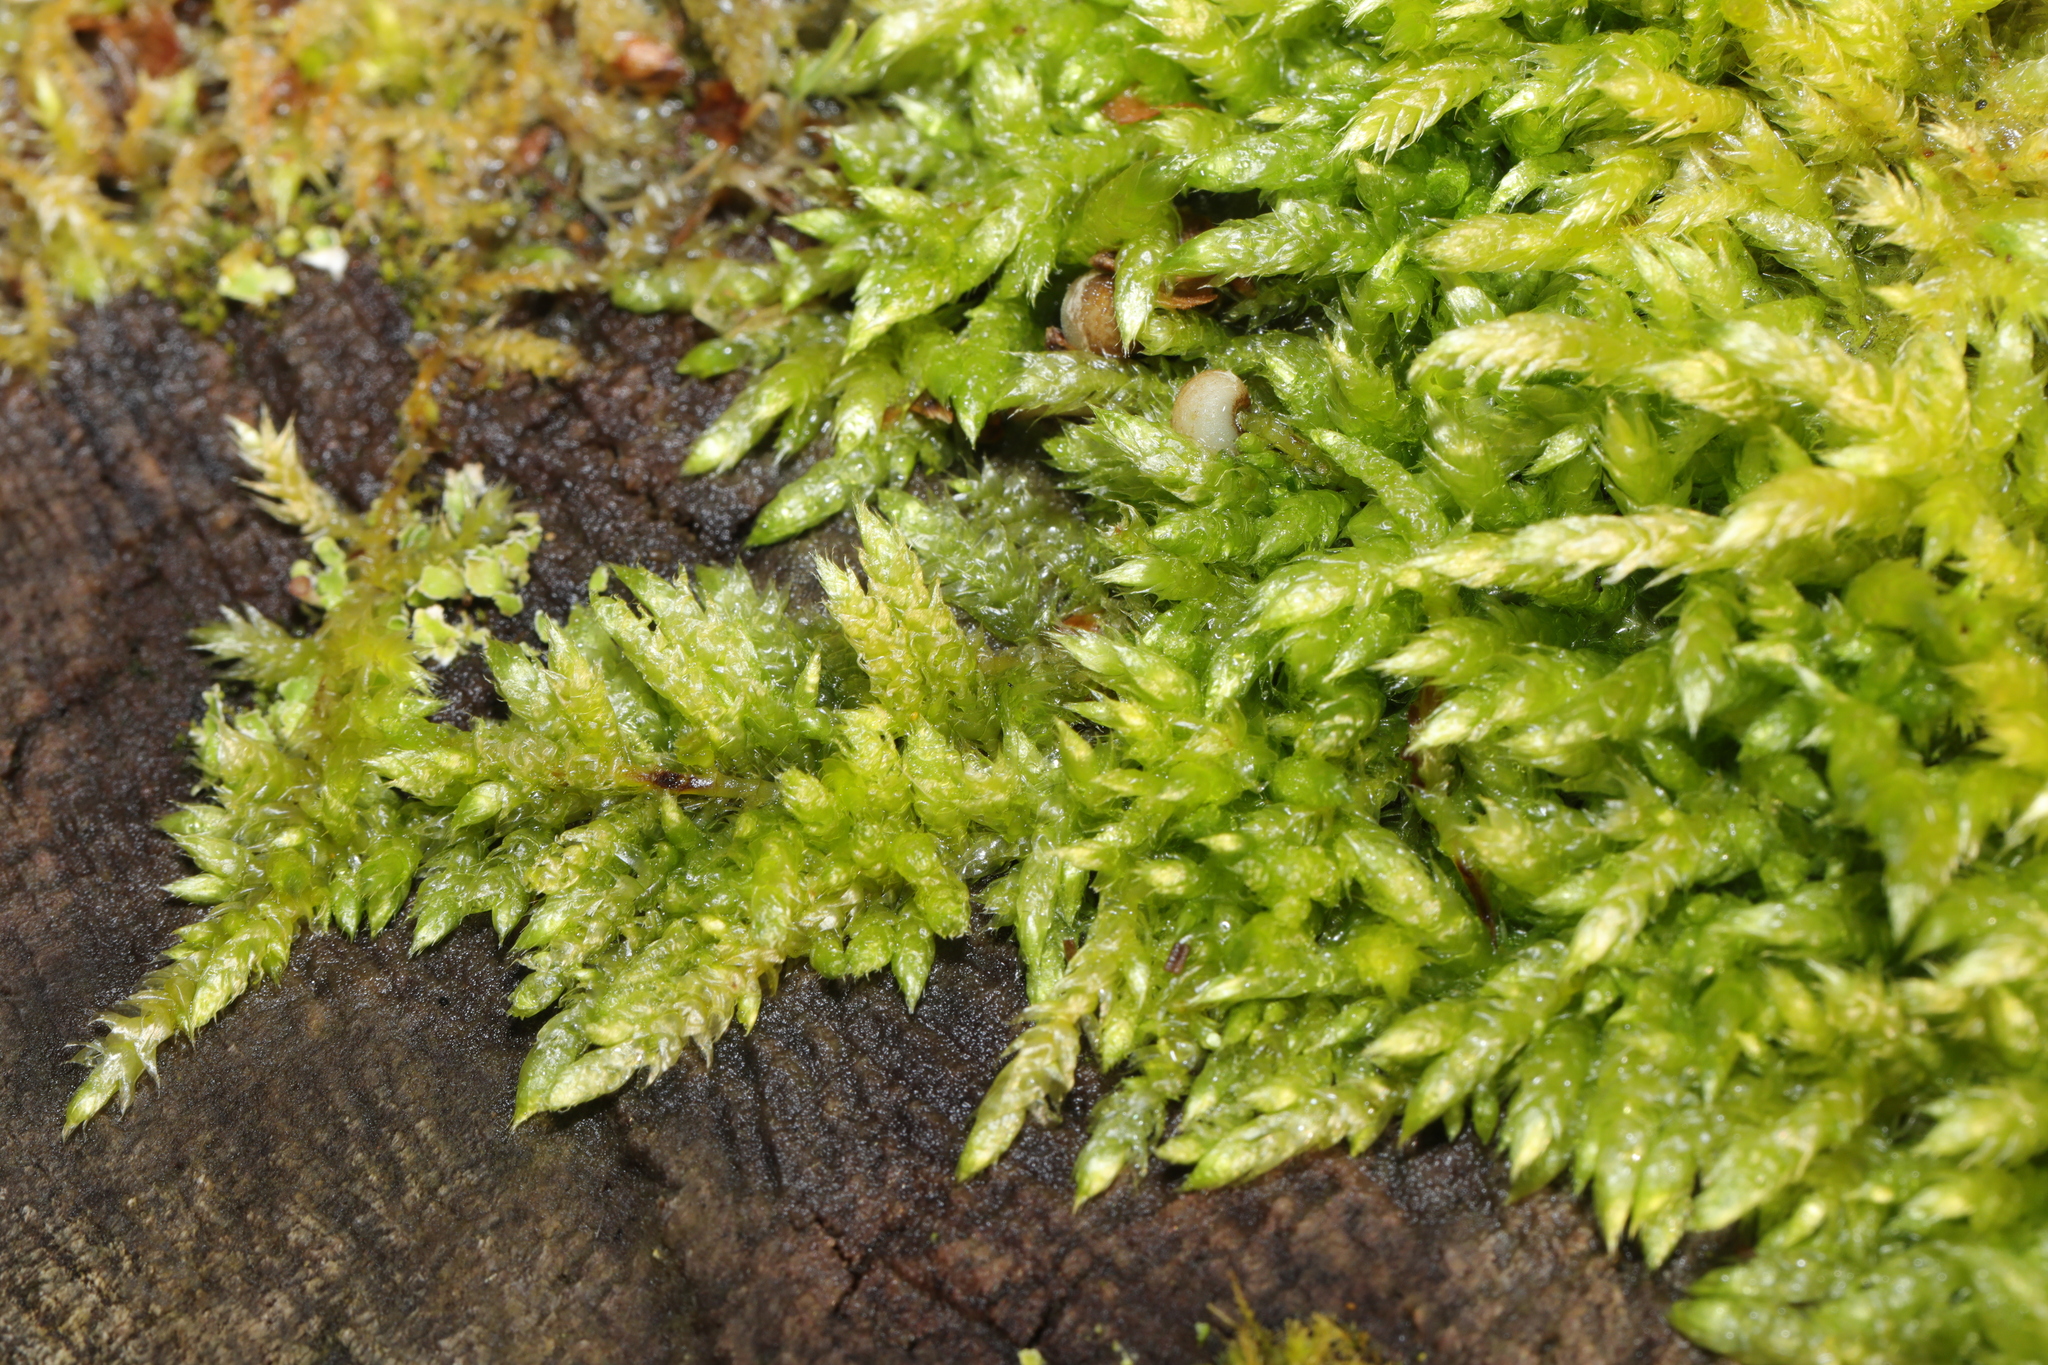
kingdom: Plantae
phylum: Bryophyta
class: Bryopsida
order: Hypnales
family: Brachytheciaceae
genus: Brachythecium
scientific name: Brachythecium rutabulum
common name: Rough-stalked feather-moss
